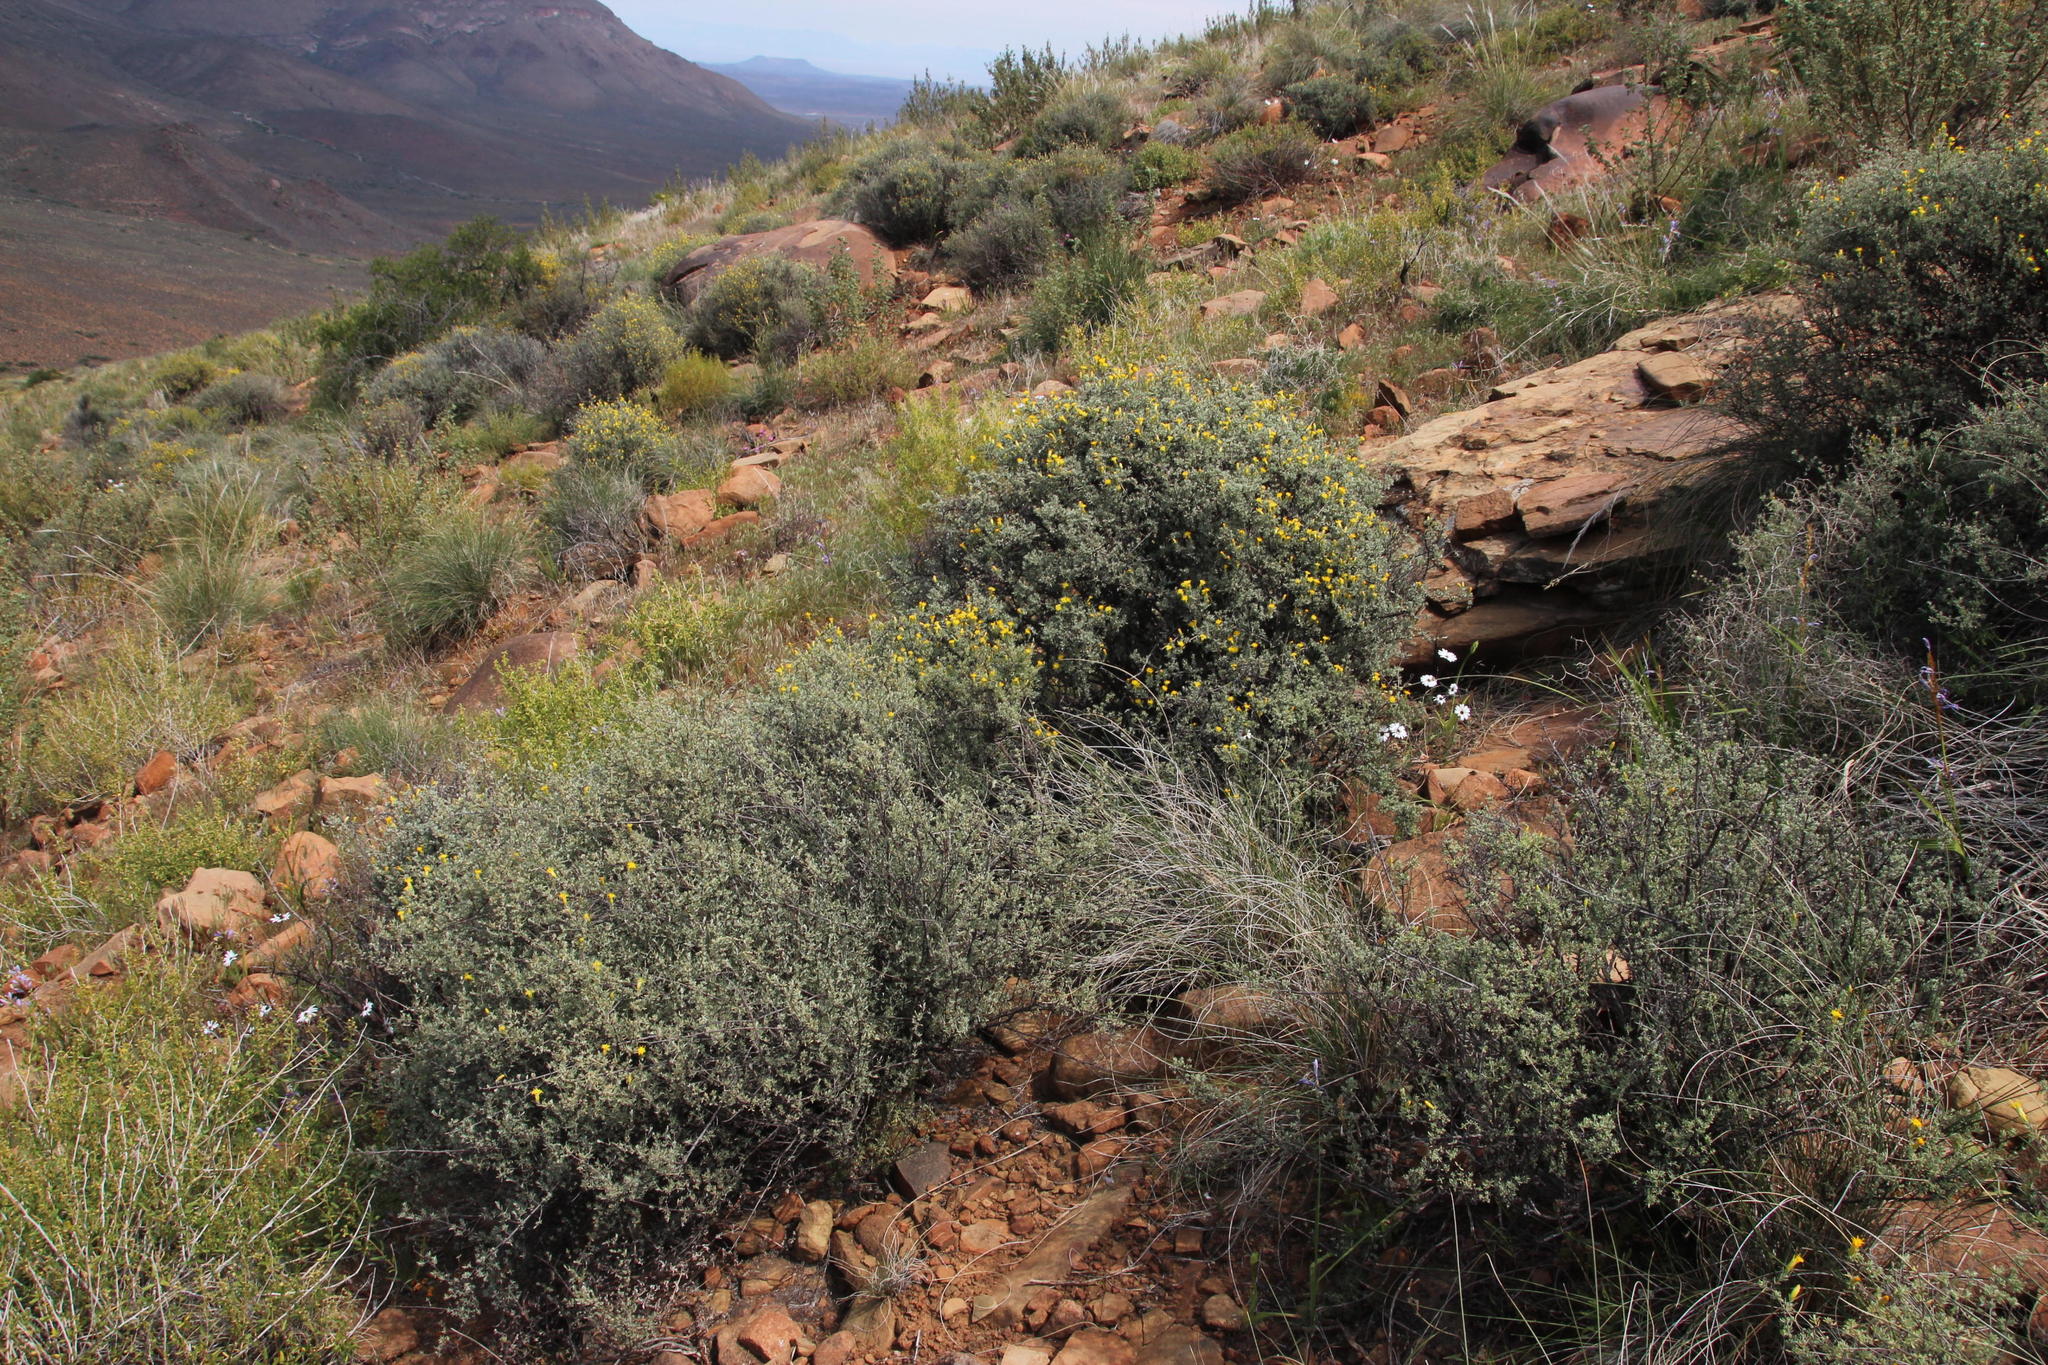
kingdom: Plantae
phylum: Tracheophyta
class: Magnoliopsida
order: Asterales
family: Asteraceae
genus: Pteronia
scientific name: Pteronia incana
